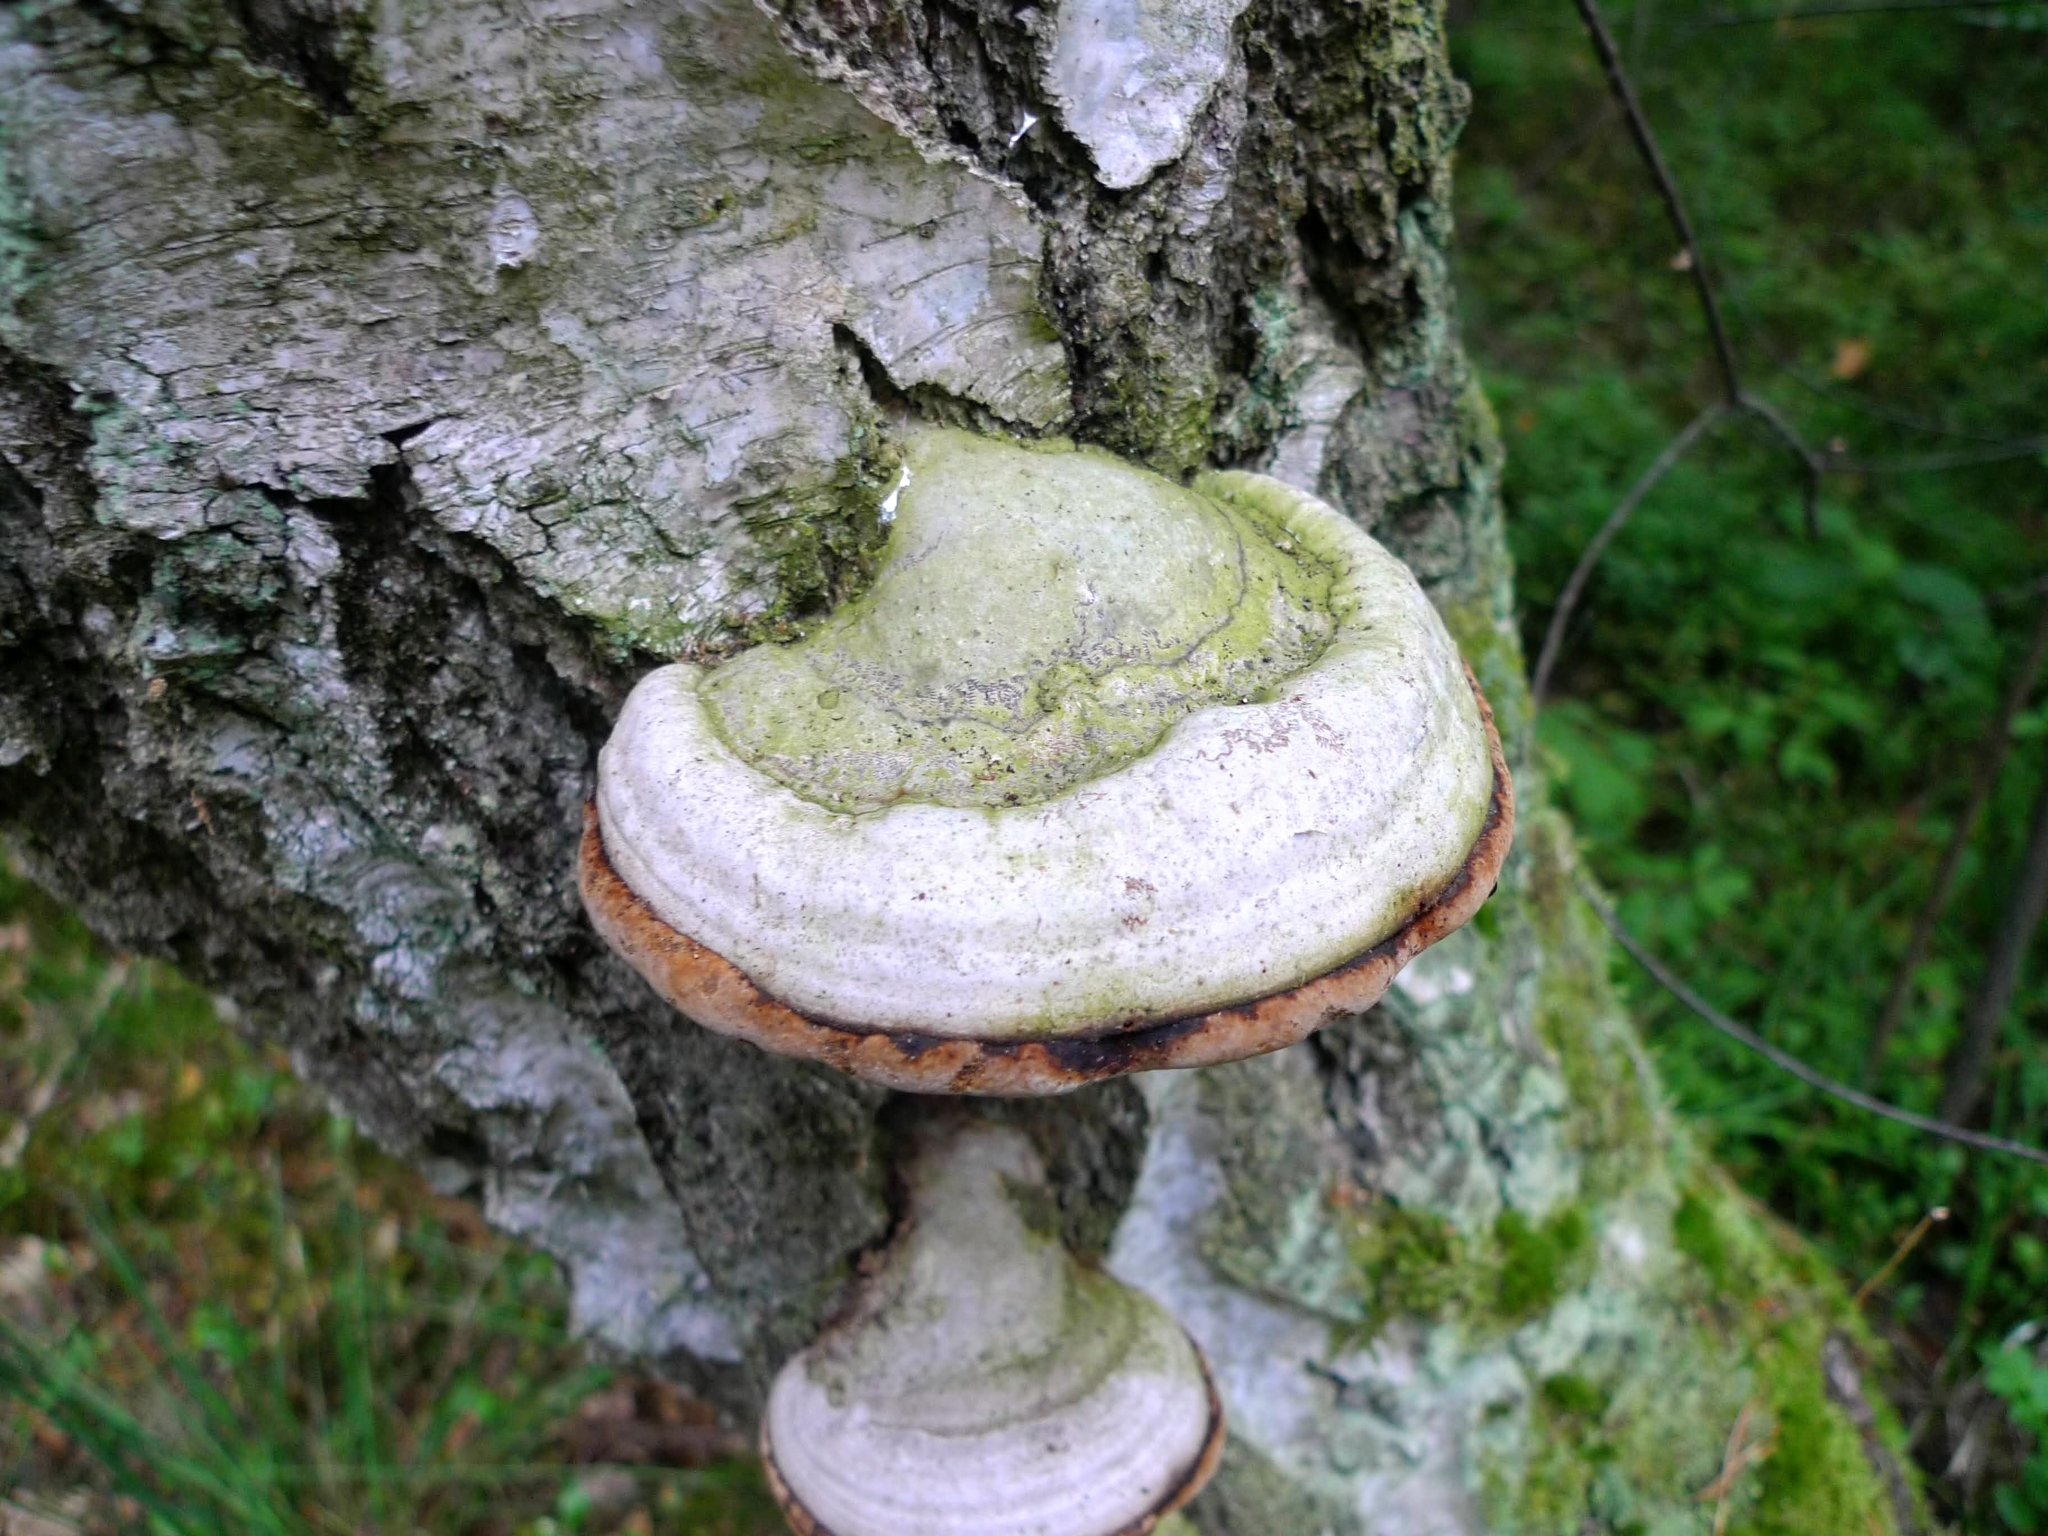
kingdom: Fungi
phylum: Basidiomycota
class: Agaricomycetes
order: Polyporales
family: Polyporaceae
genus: Fomes
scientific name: Fomes fomentarius
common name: Hoof fungus
